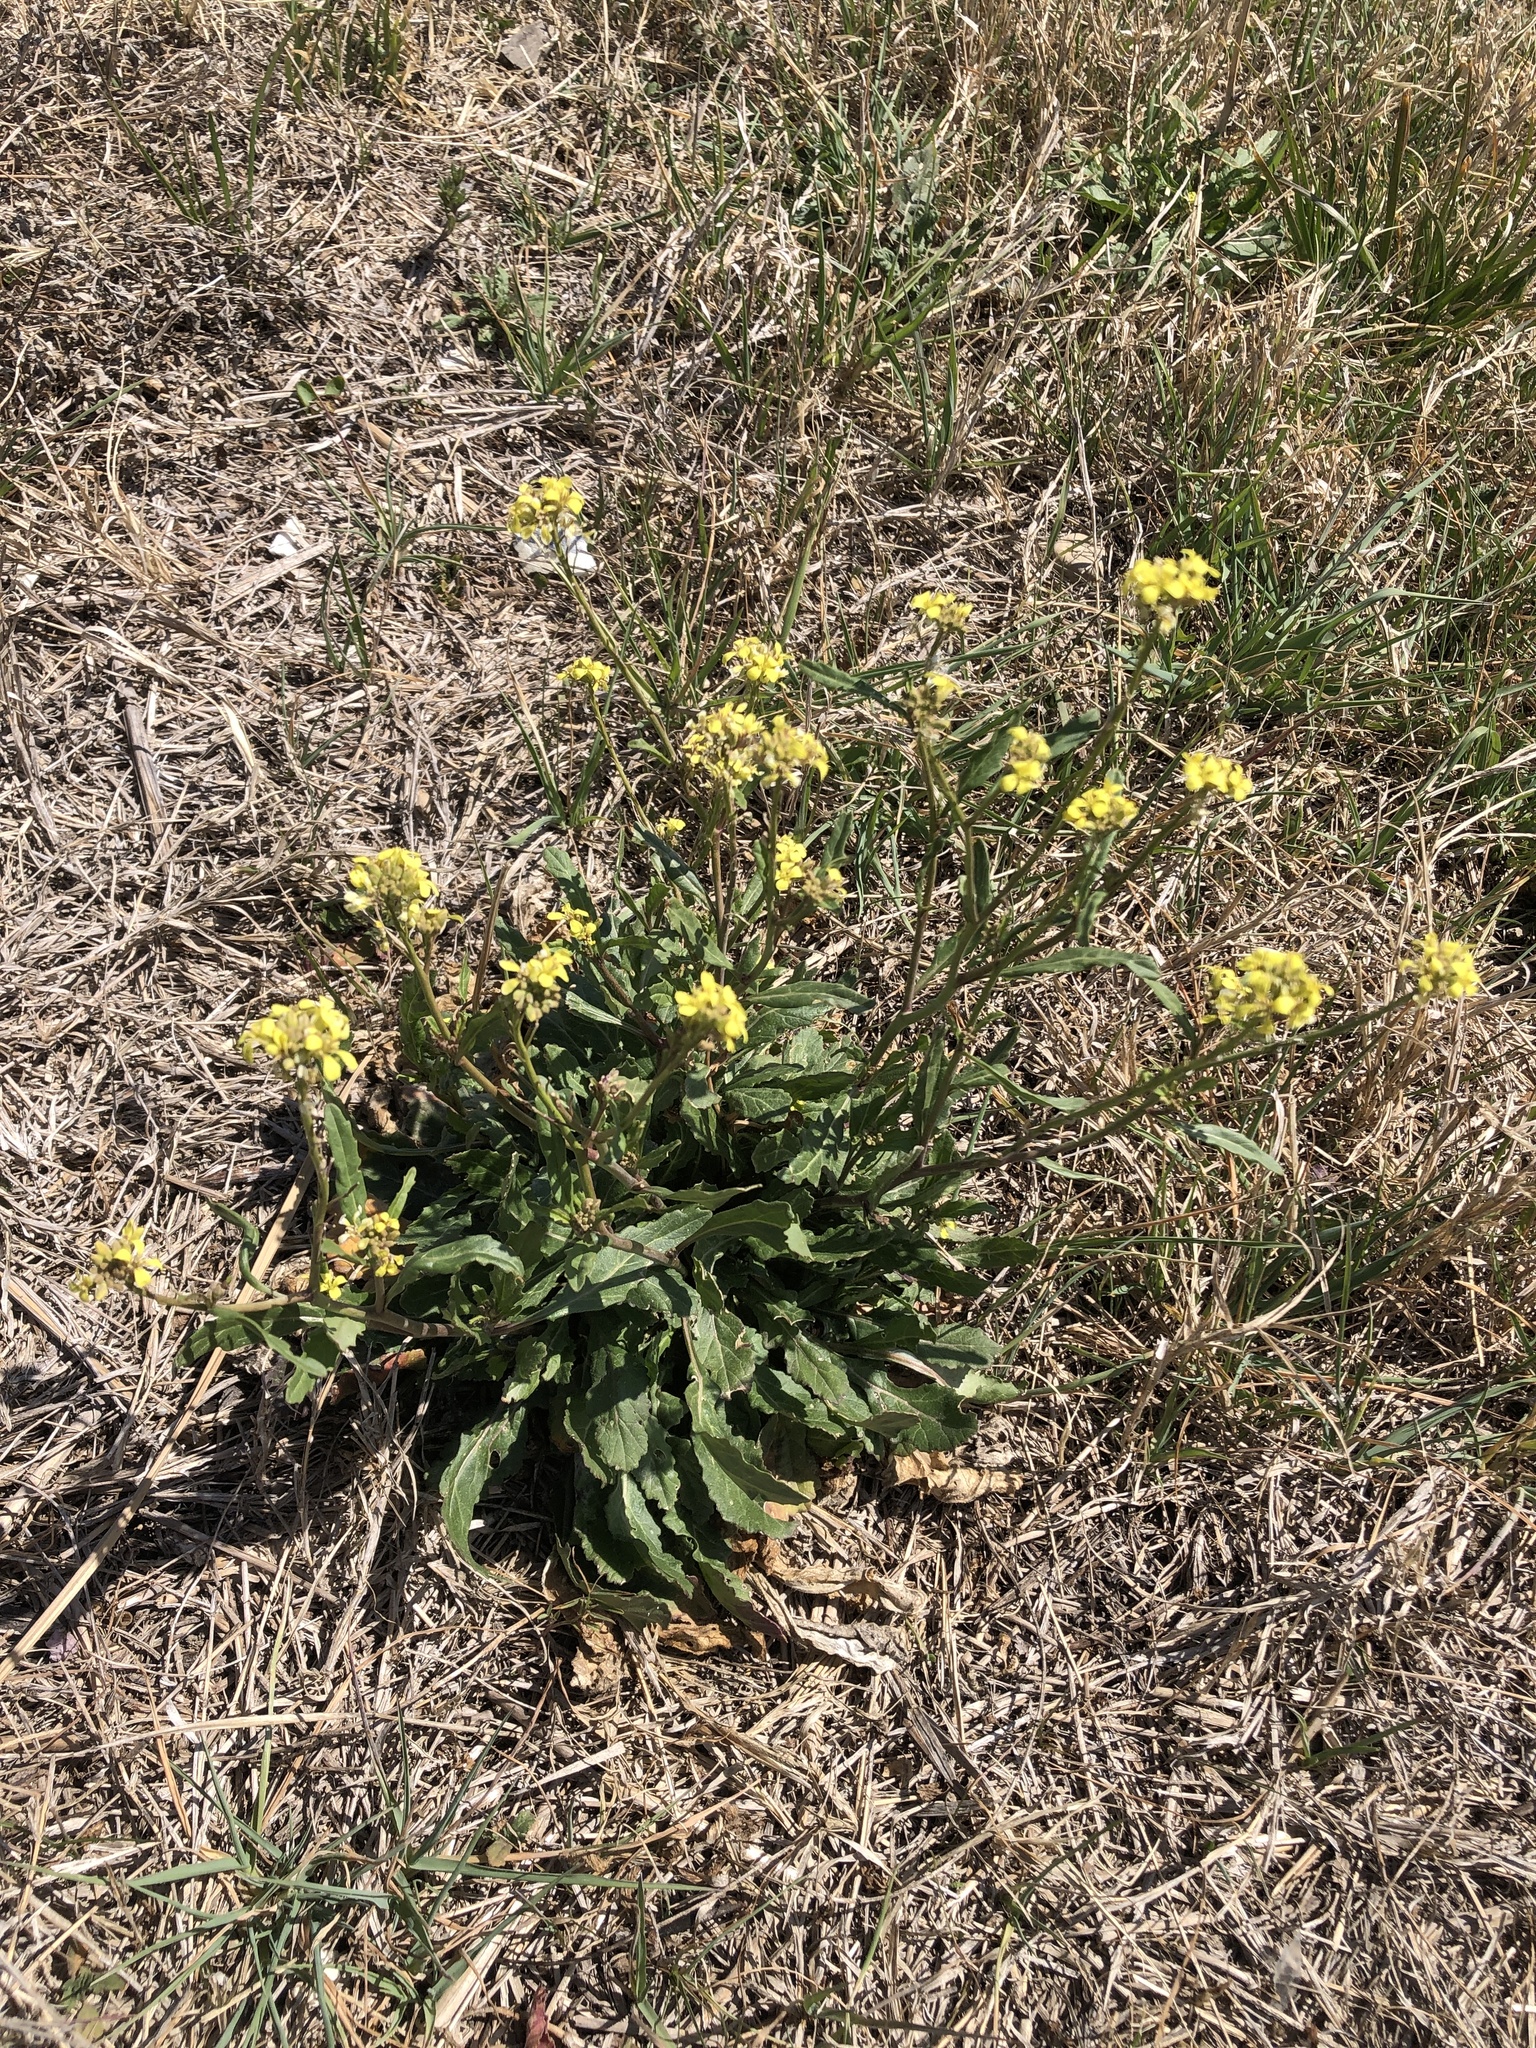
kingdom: Plantae
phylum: Tracheophyta
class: Magnoliopsida
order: Brassicales
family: Brassicaceae
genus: Rapistrum
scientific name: Rapistrum rugosum
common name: Annual bastardcabbage
